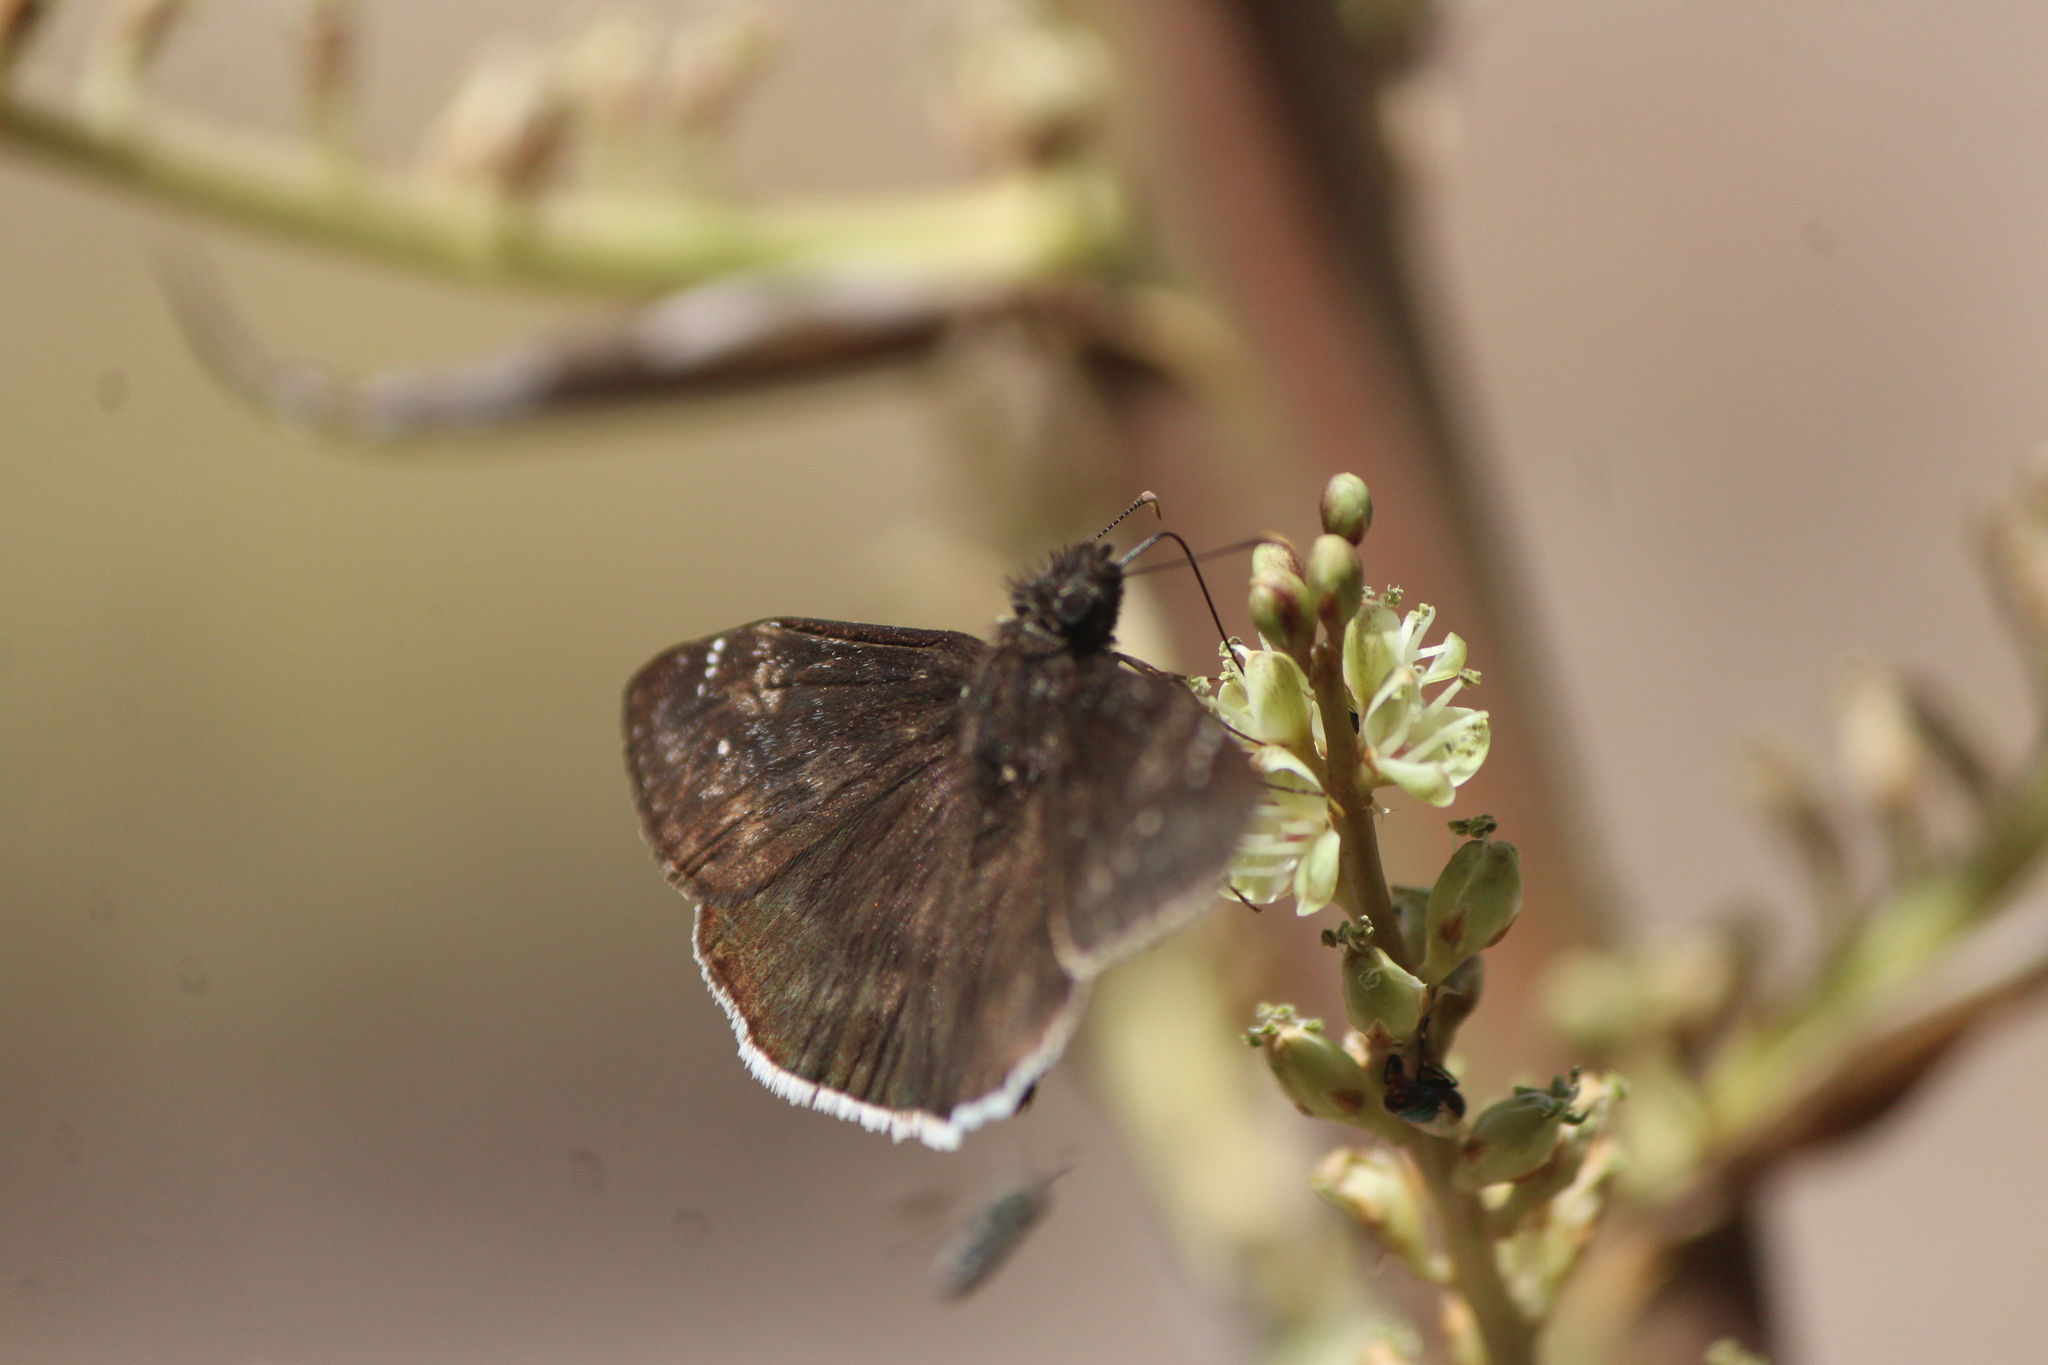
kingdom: Animalia
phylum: Arthropoda
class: Insecta
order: Lepidoptera
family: Hesperiidae
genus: Erynnis
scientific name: Erynnis funeralis
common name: Funereal duskywing
